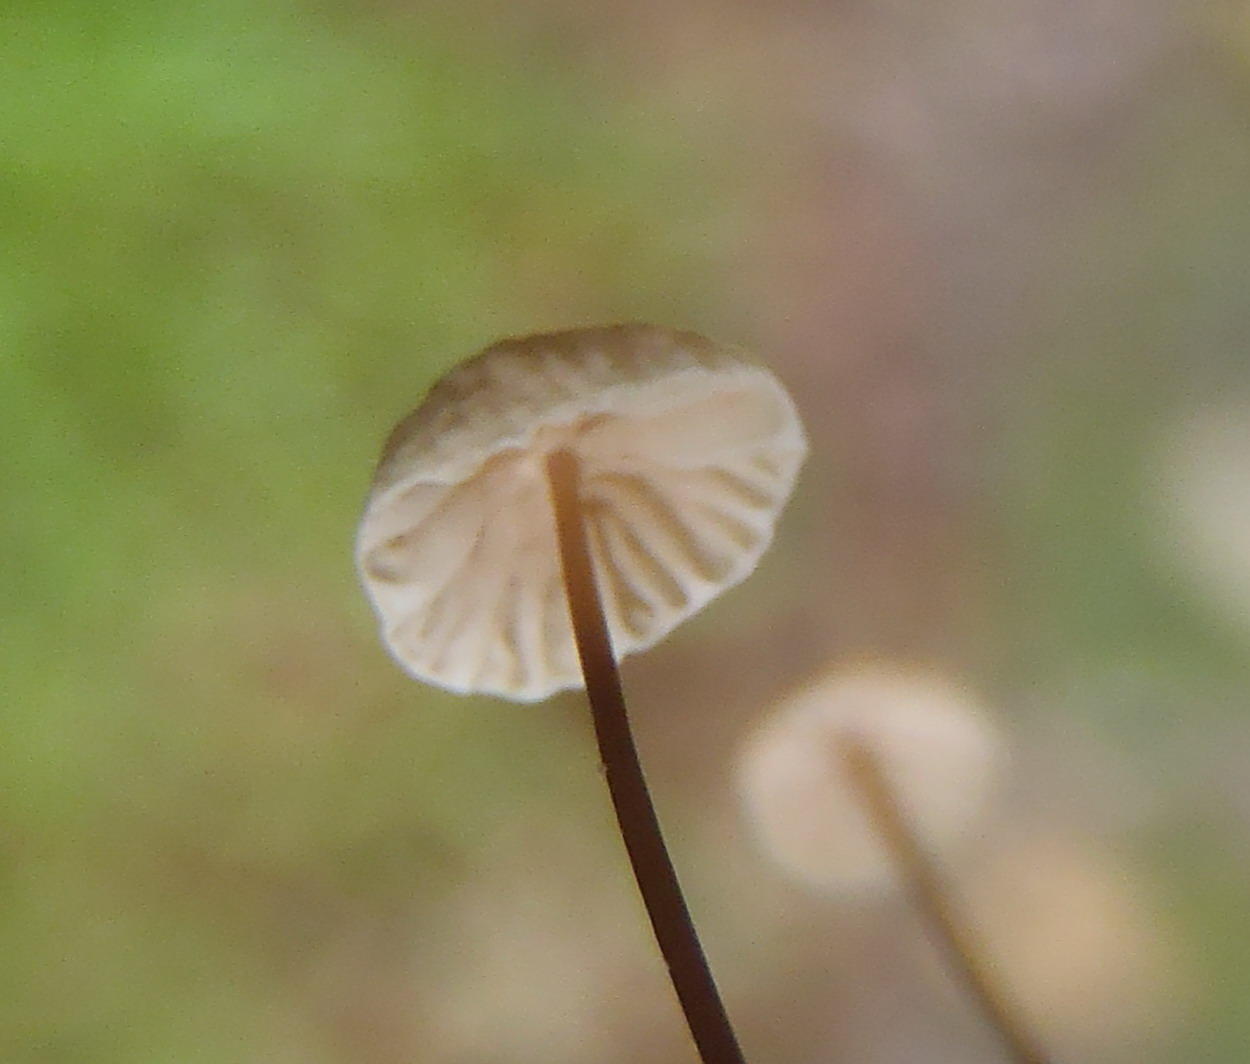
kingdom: Fungi
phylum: Basidiomycota
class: Agaricomycetes
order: Agaricales
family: Omphalotaceae
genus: Gymnopus
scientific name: Gymnopus androsaceus
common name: Horse-hair fungus
